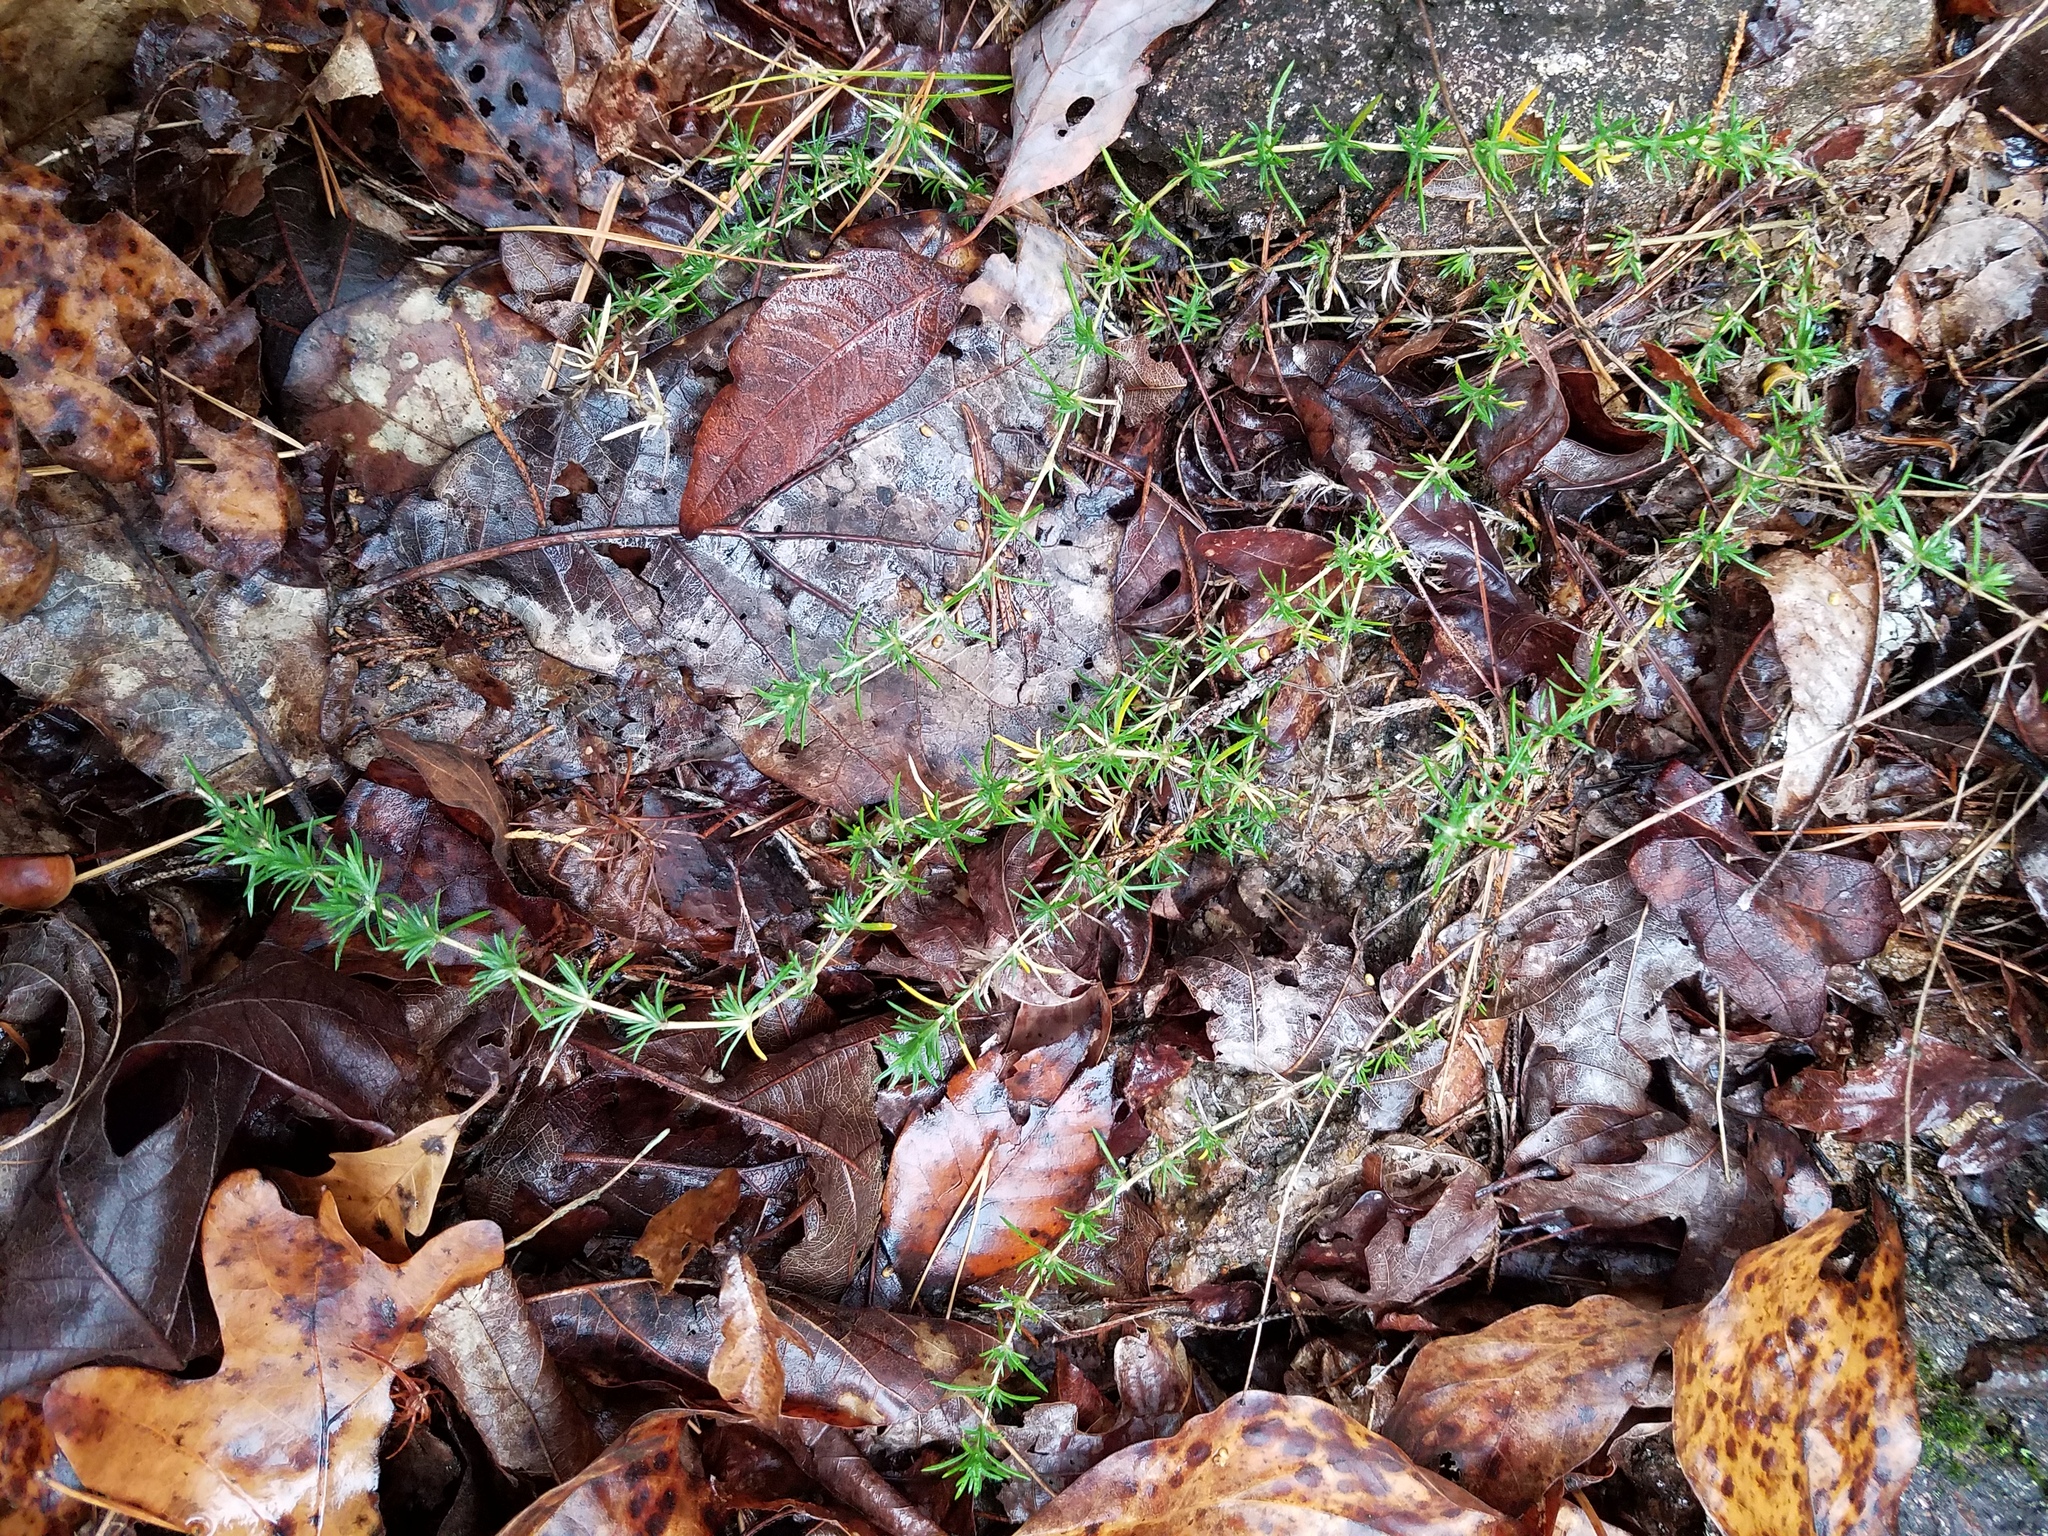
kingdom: Plantae
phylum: Tracheophyta
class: Magnoliopsida
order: Ericales
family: Polemoniaceae
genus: Phlox
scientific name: Phlox nivalis
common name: Trailing phlox
